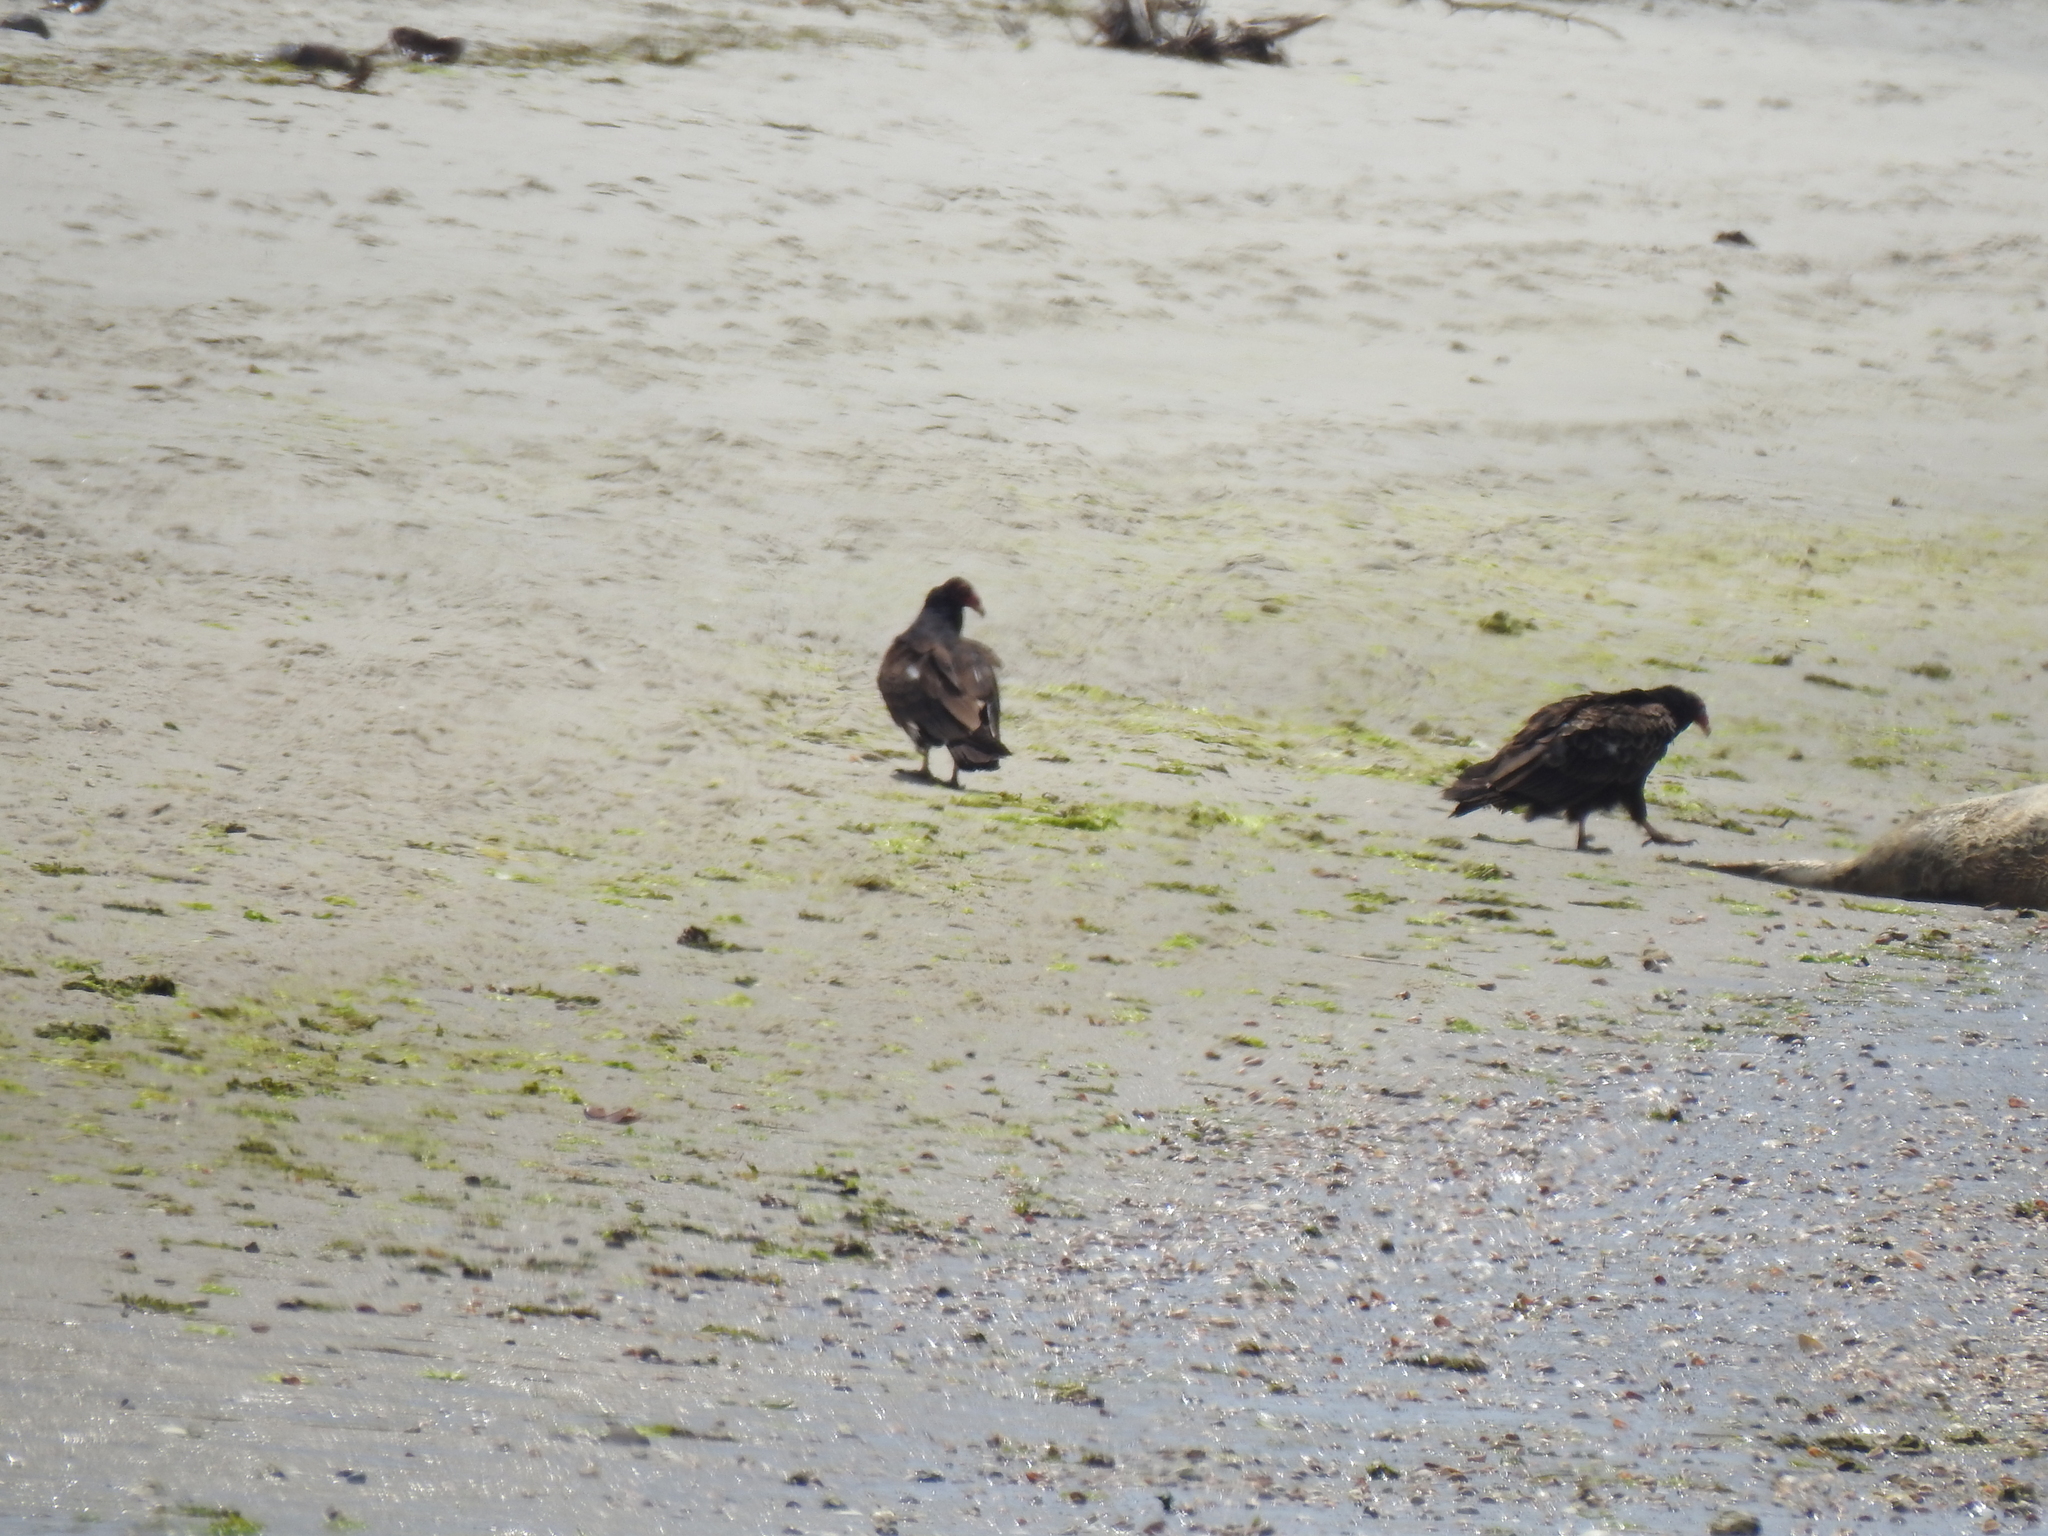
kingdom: Animalia
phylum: Chordata
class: Aves
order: Accipitriformes
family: Cathartidae
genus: Cathartes
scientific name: Cathartes aura
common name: Turkey vulture
